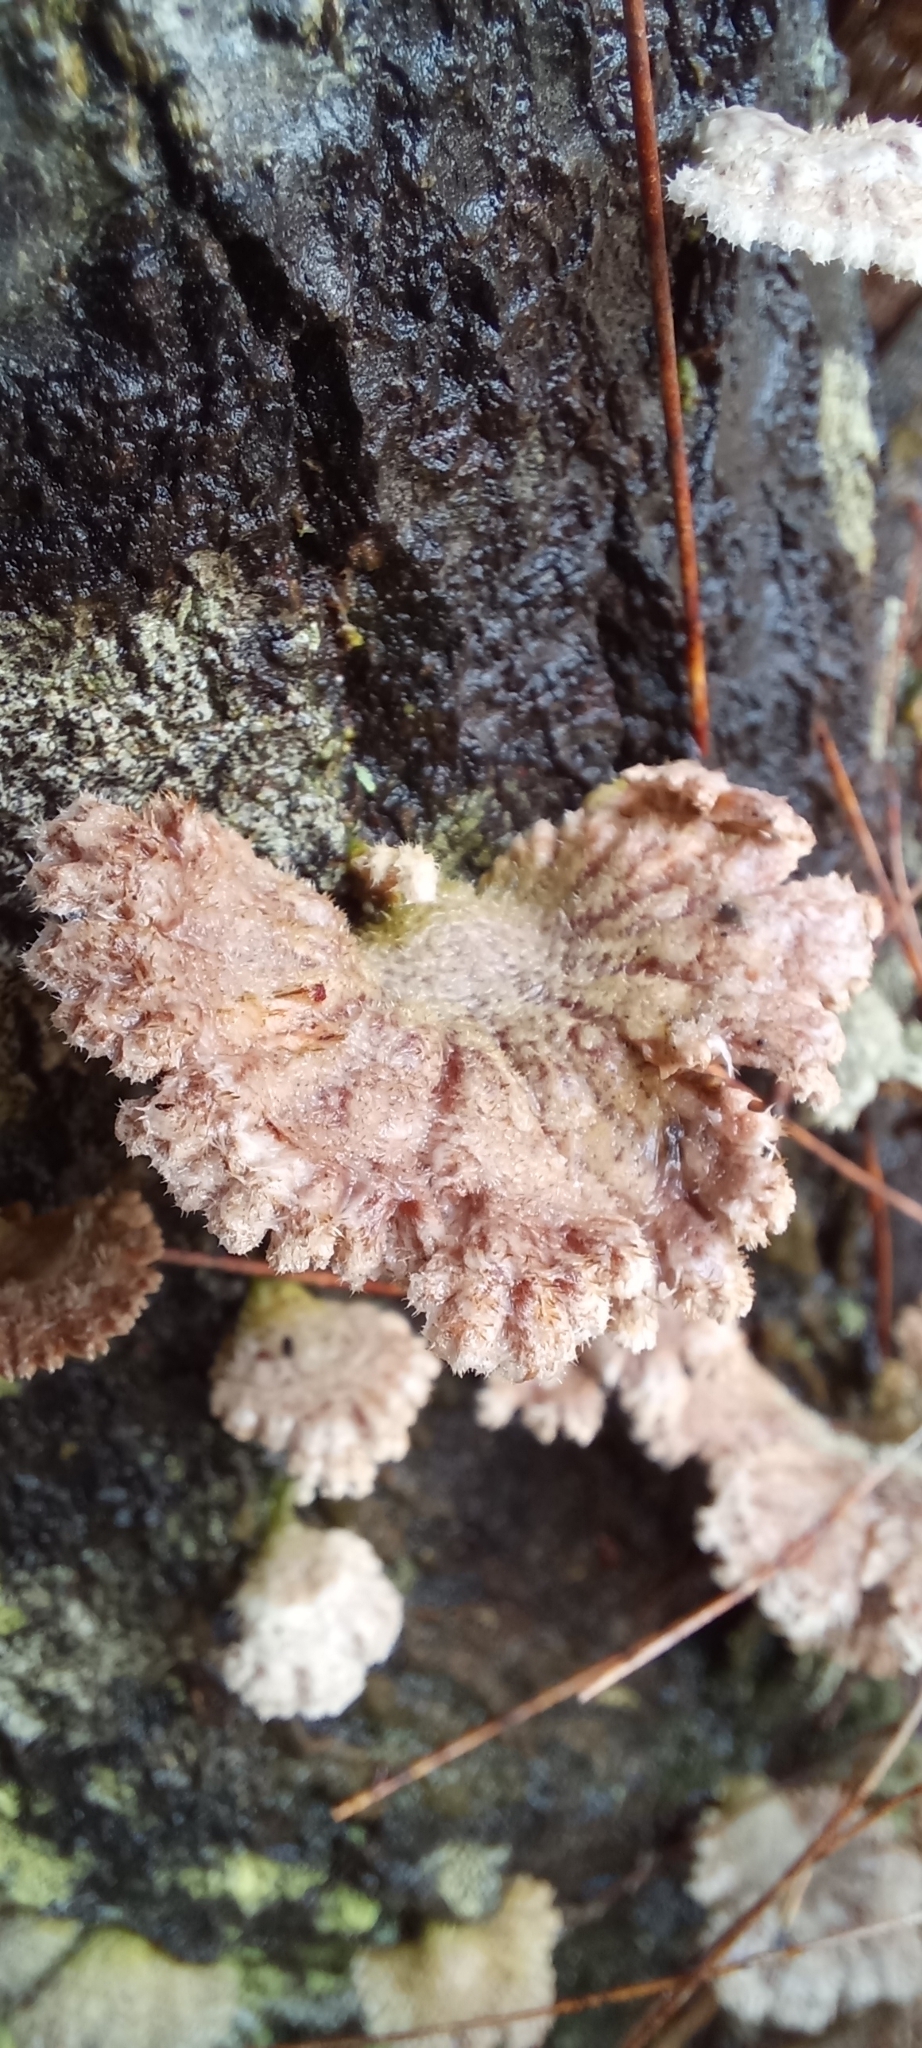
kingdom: Fungi
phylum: Basidiomycota
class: Agaricomycetes
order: Agaricales
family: Schizophyllaceae
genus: Schizophyllum
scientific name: Schizophyllum commune
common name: Common porecrust
